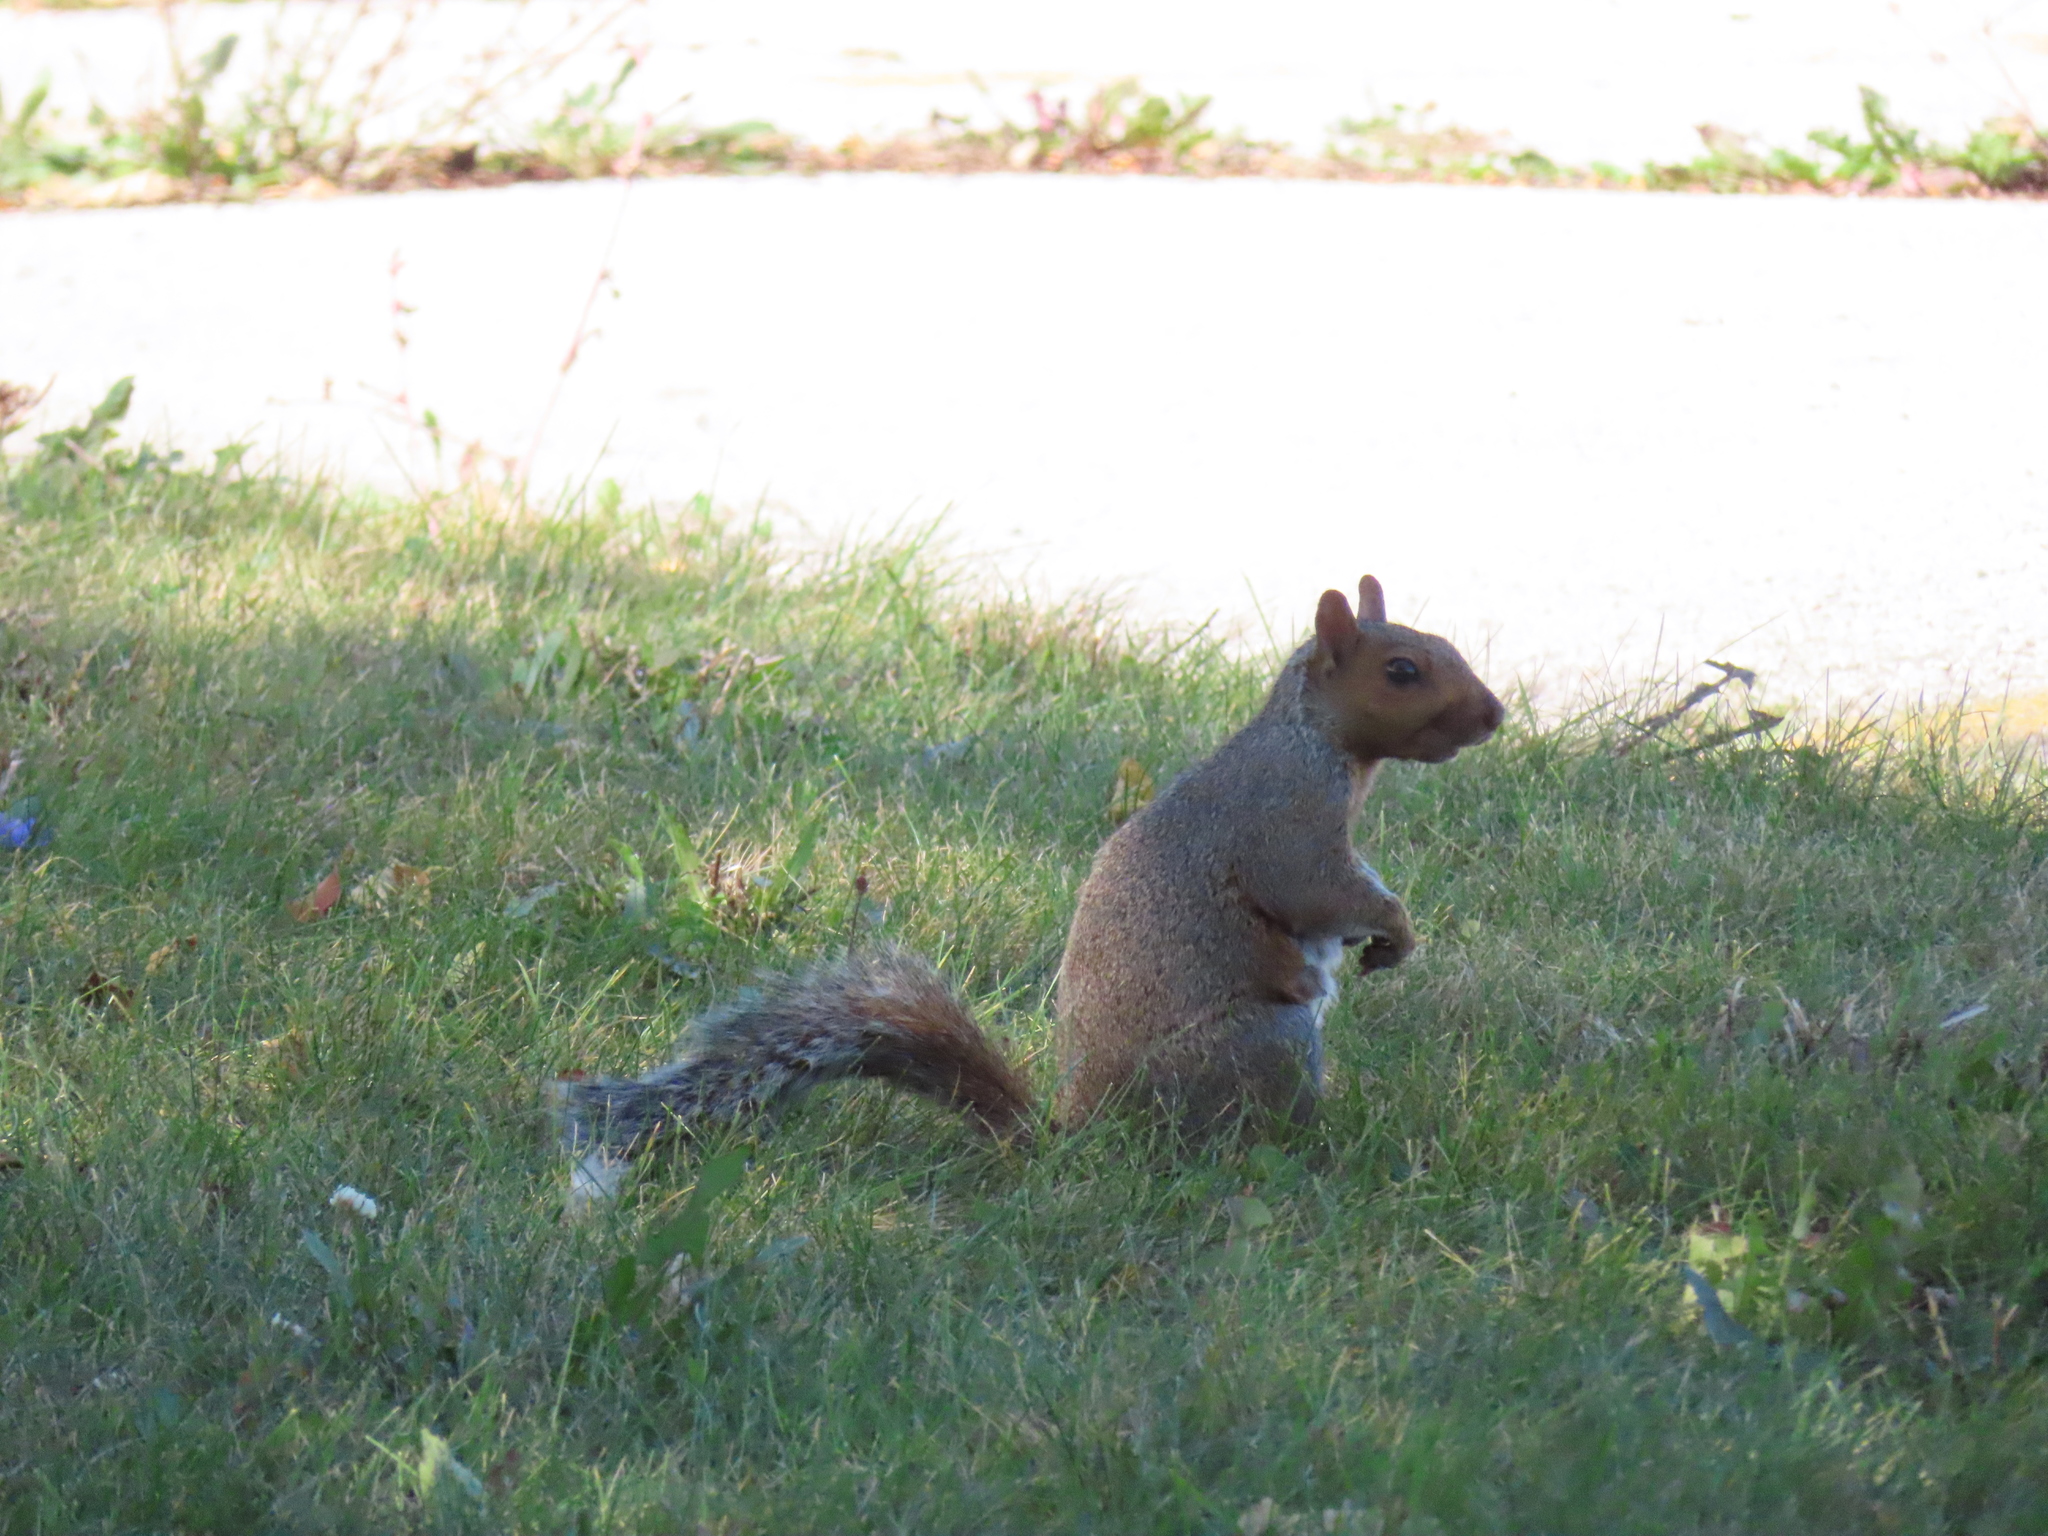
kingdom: Animalia
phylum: Chordata
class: Mammalia
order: Rodentia
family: Sciuridae
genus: Sciurus
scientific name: Sciurus carolinensis
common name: Eastern gray squirrel
